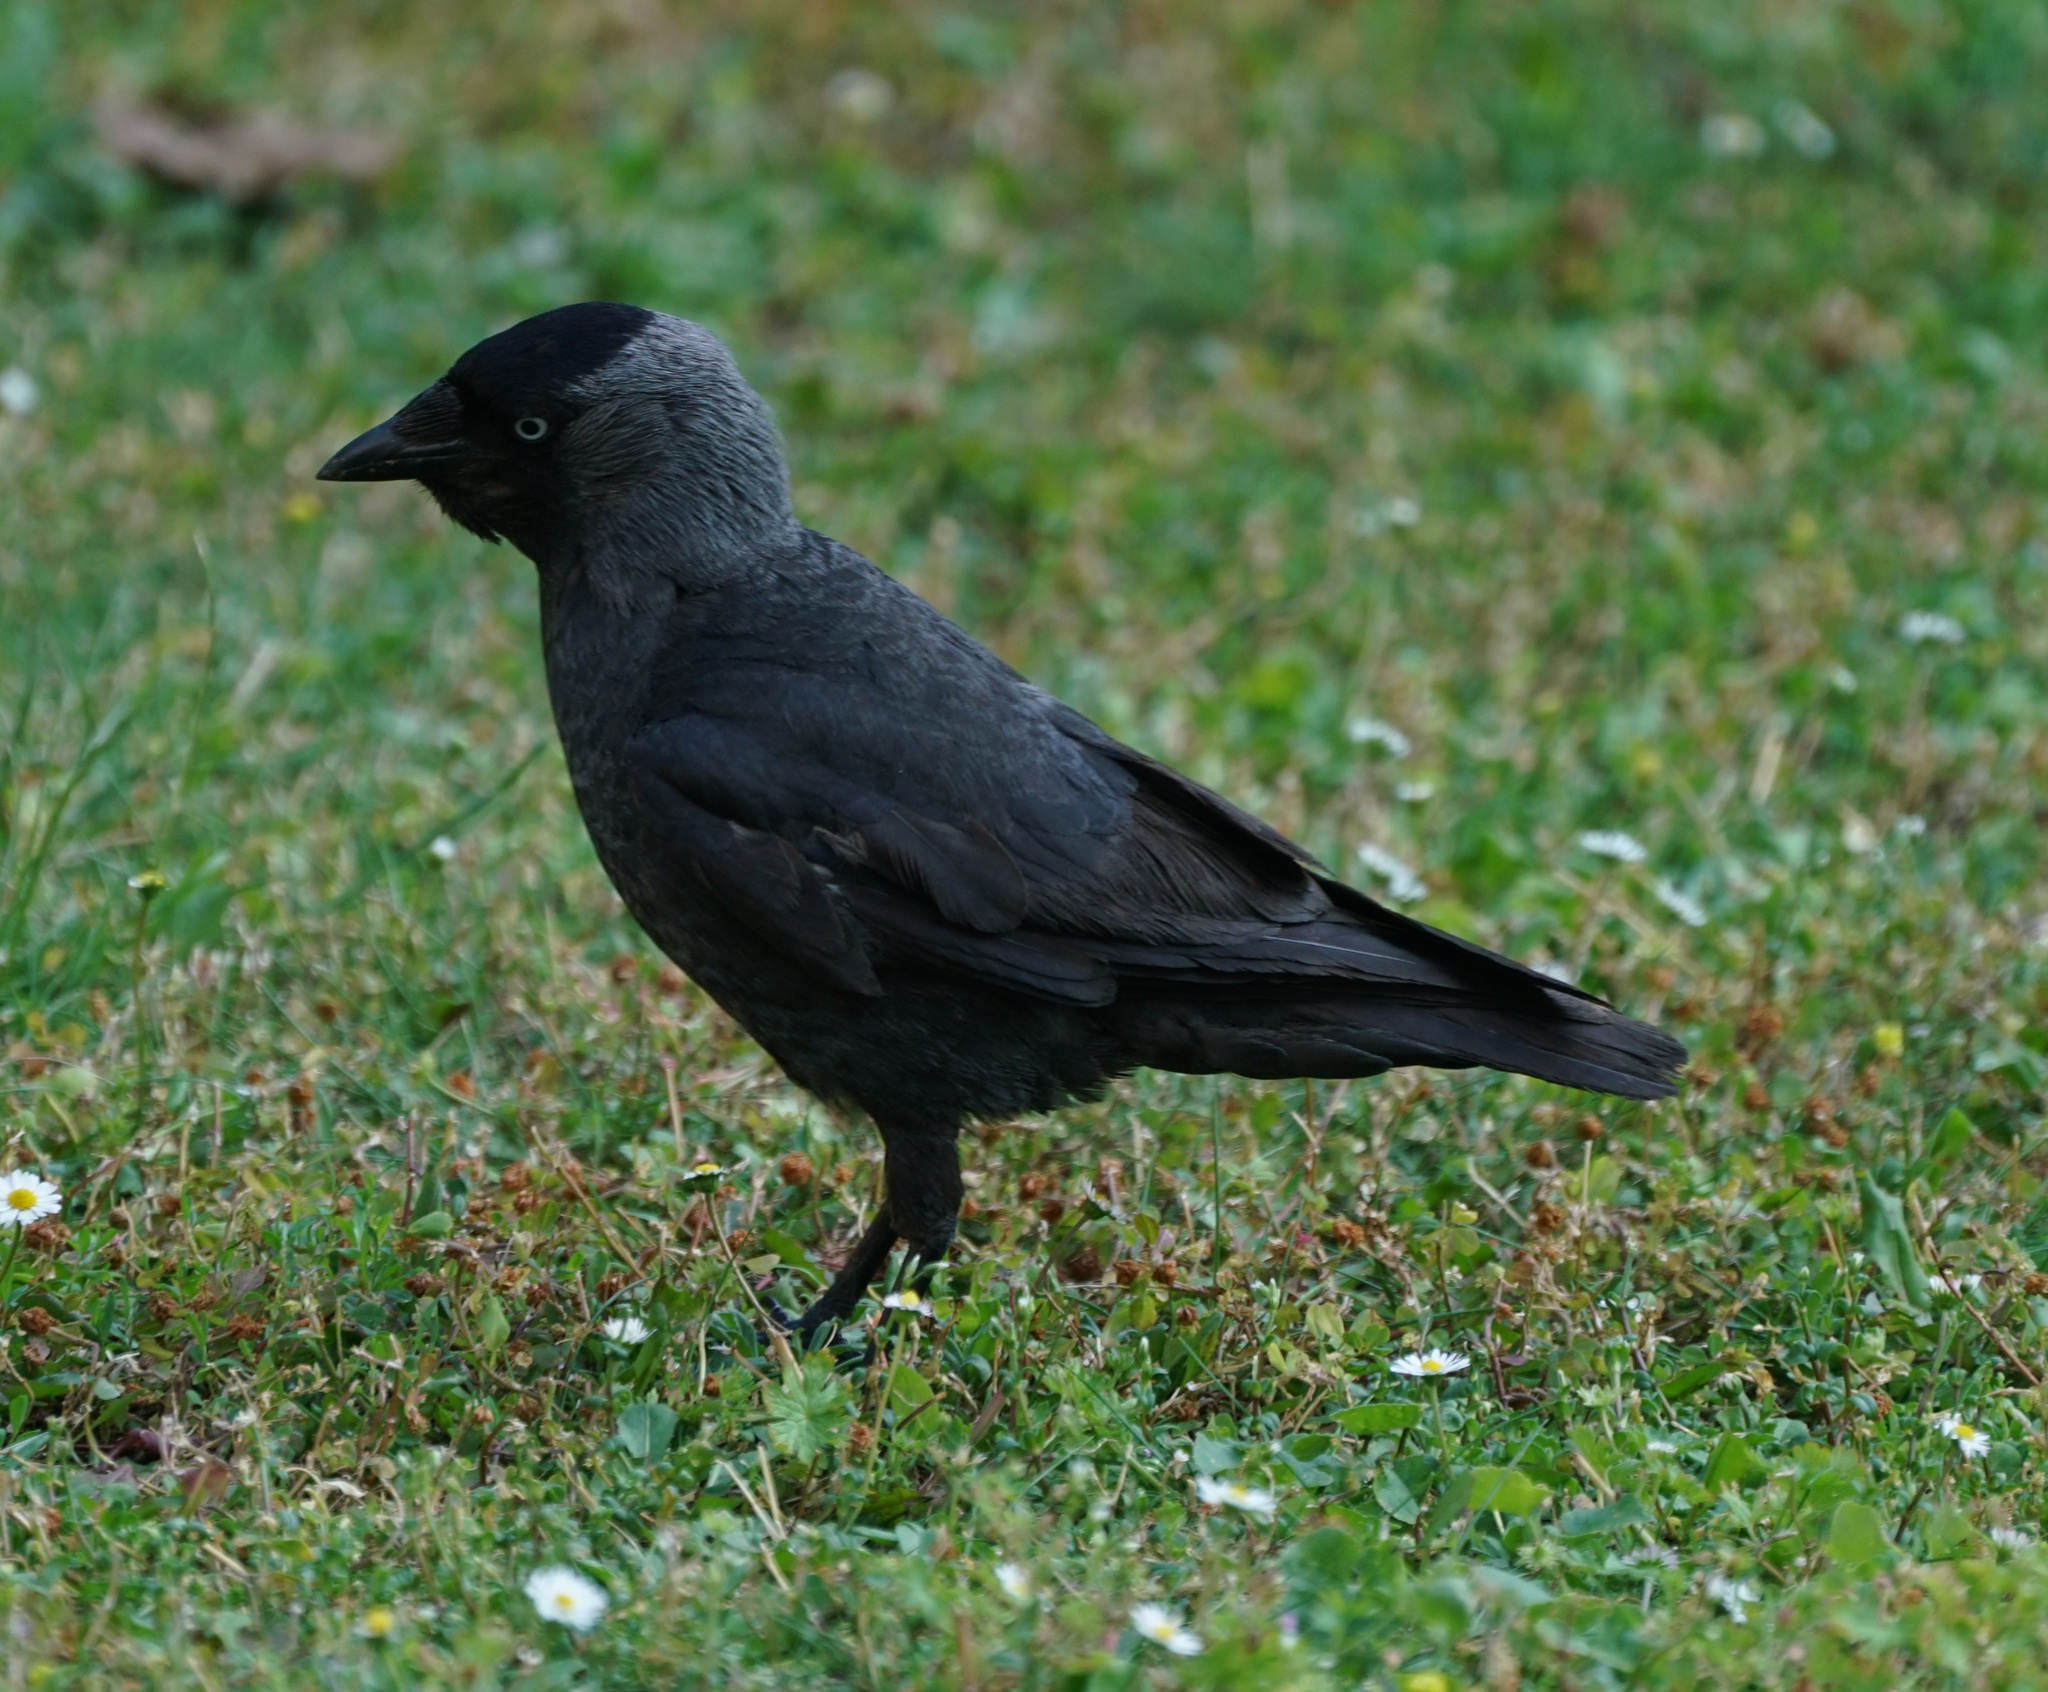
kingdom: Animalia
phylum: Chordata
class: Aves
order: Passeriformes
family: Corvidae
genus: Coloeus
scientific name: Coloeus monedula
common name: Western jackdaw
